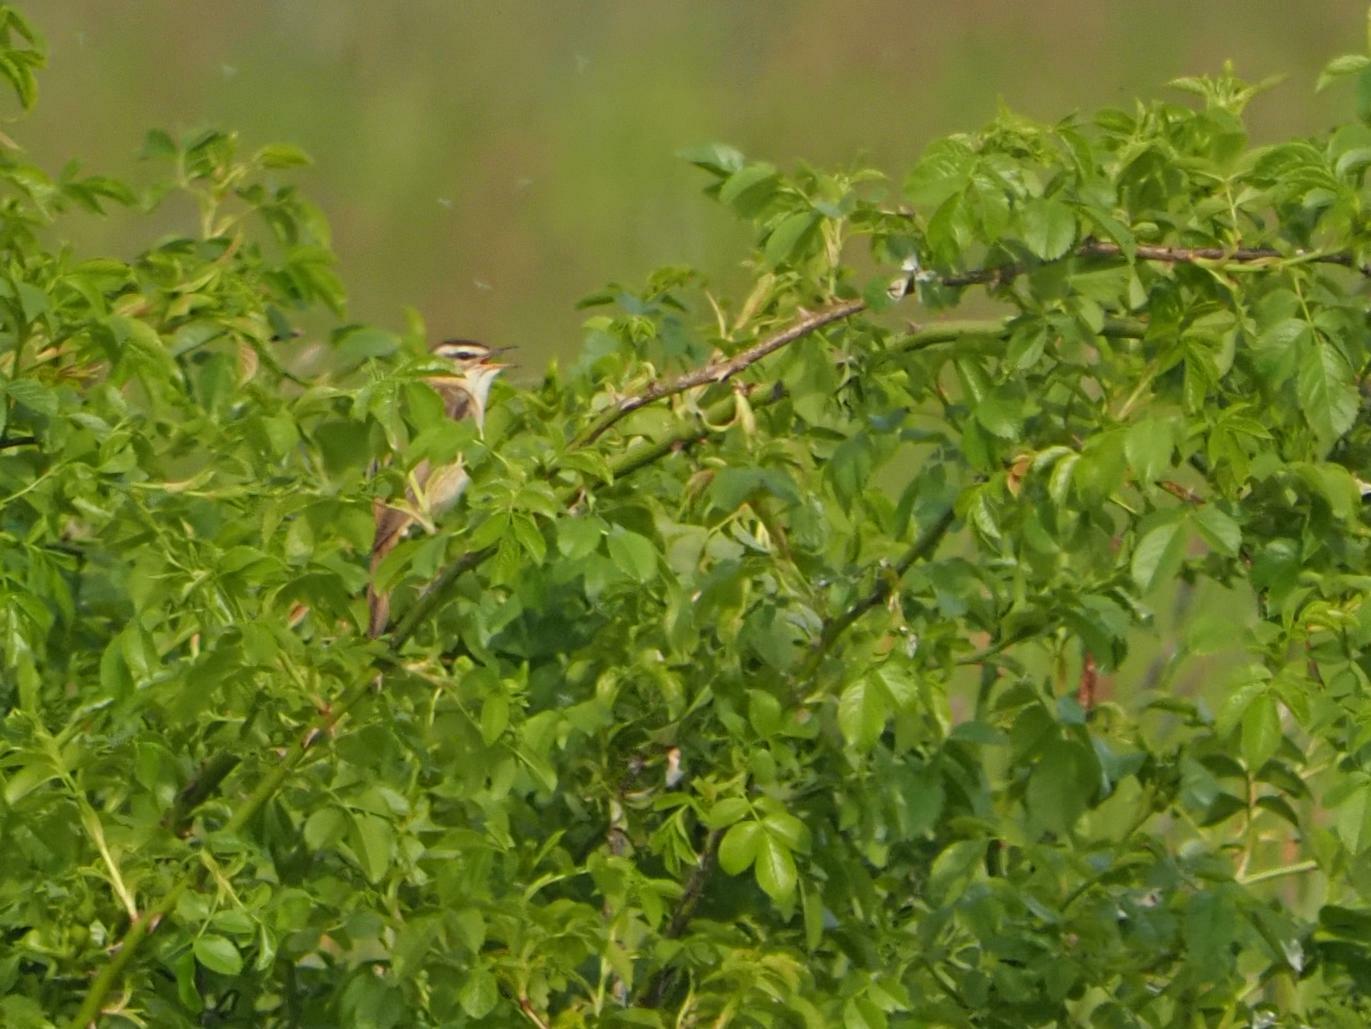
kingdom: Animalia
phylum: Chordata
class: Aves
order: Passeriformes
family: Acrocephalidae
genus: Acrocephalus
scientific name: Acrocephalus schoenobaenus
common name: Sedge warbler
